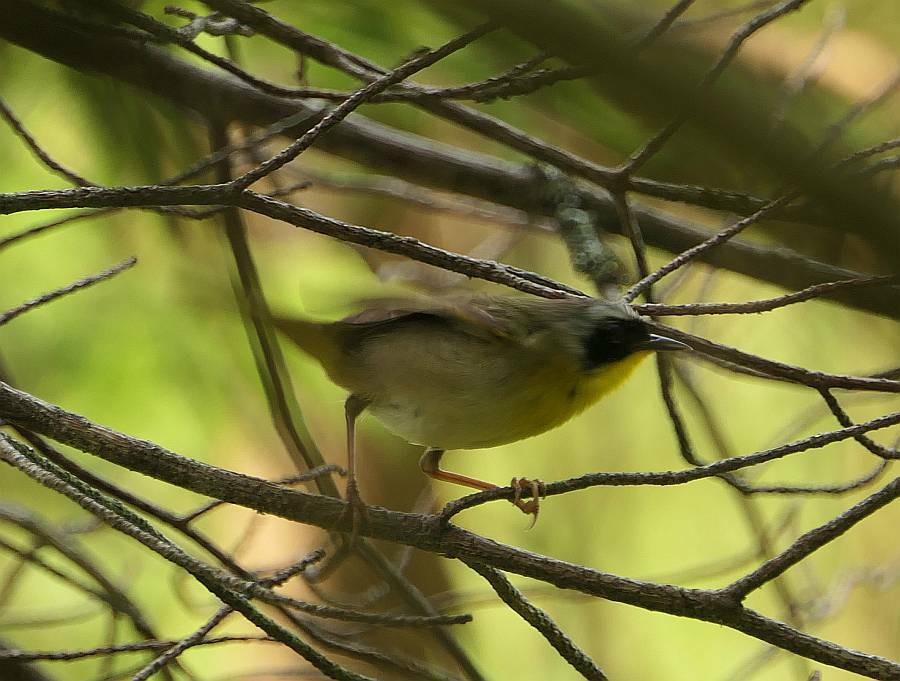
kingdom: Animalia
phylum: Chordata
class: Aves
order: Passeriformes
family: Parulidae
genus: Geothlypis
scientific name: Geothlypis trichas
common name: Common yellowthroat
